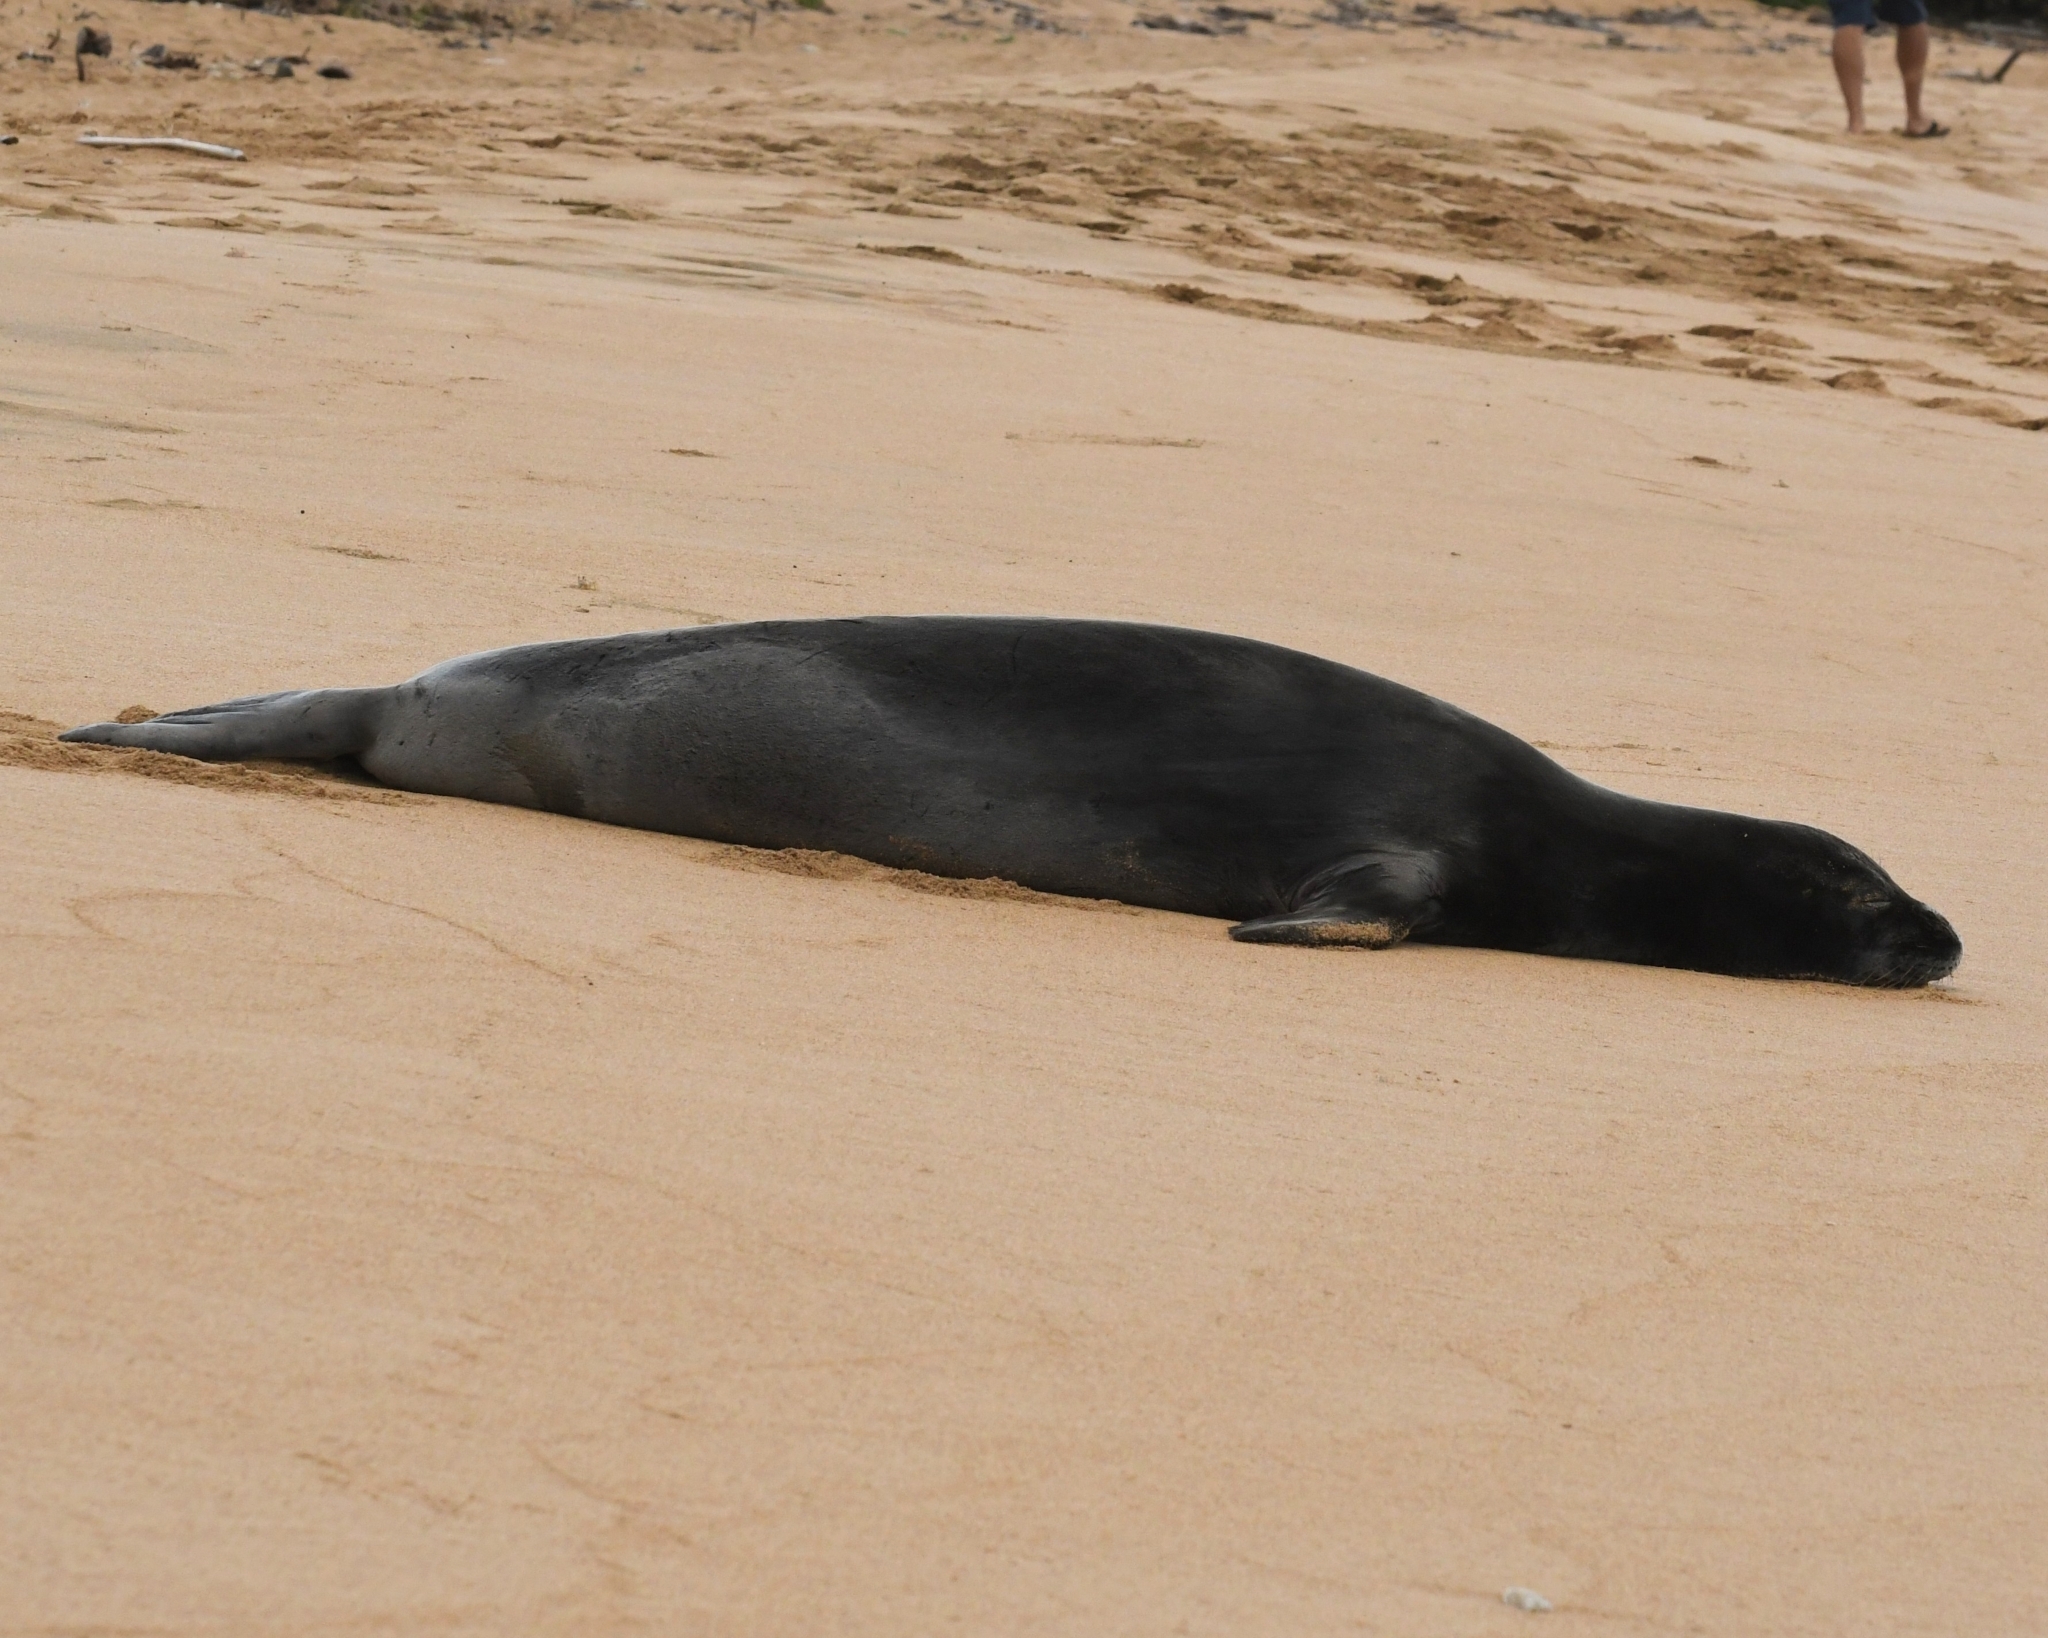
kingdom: Animalia
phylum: Chordata
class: Mammalia
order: Carnivora
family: Phocidae
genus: Neomonachus
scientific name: Neomonachus schauinslandi
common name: Hawaiian monk seal
